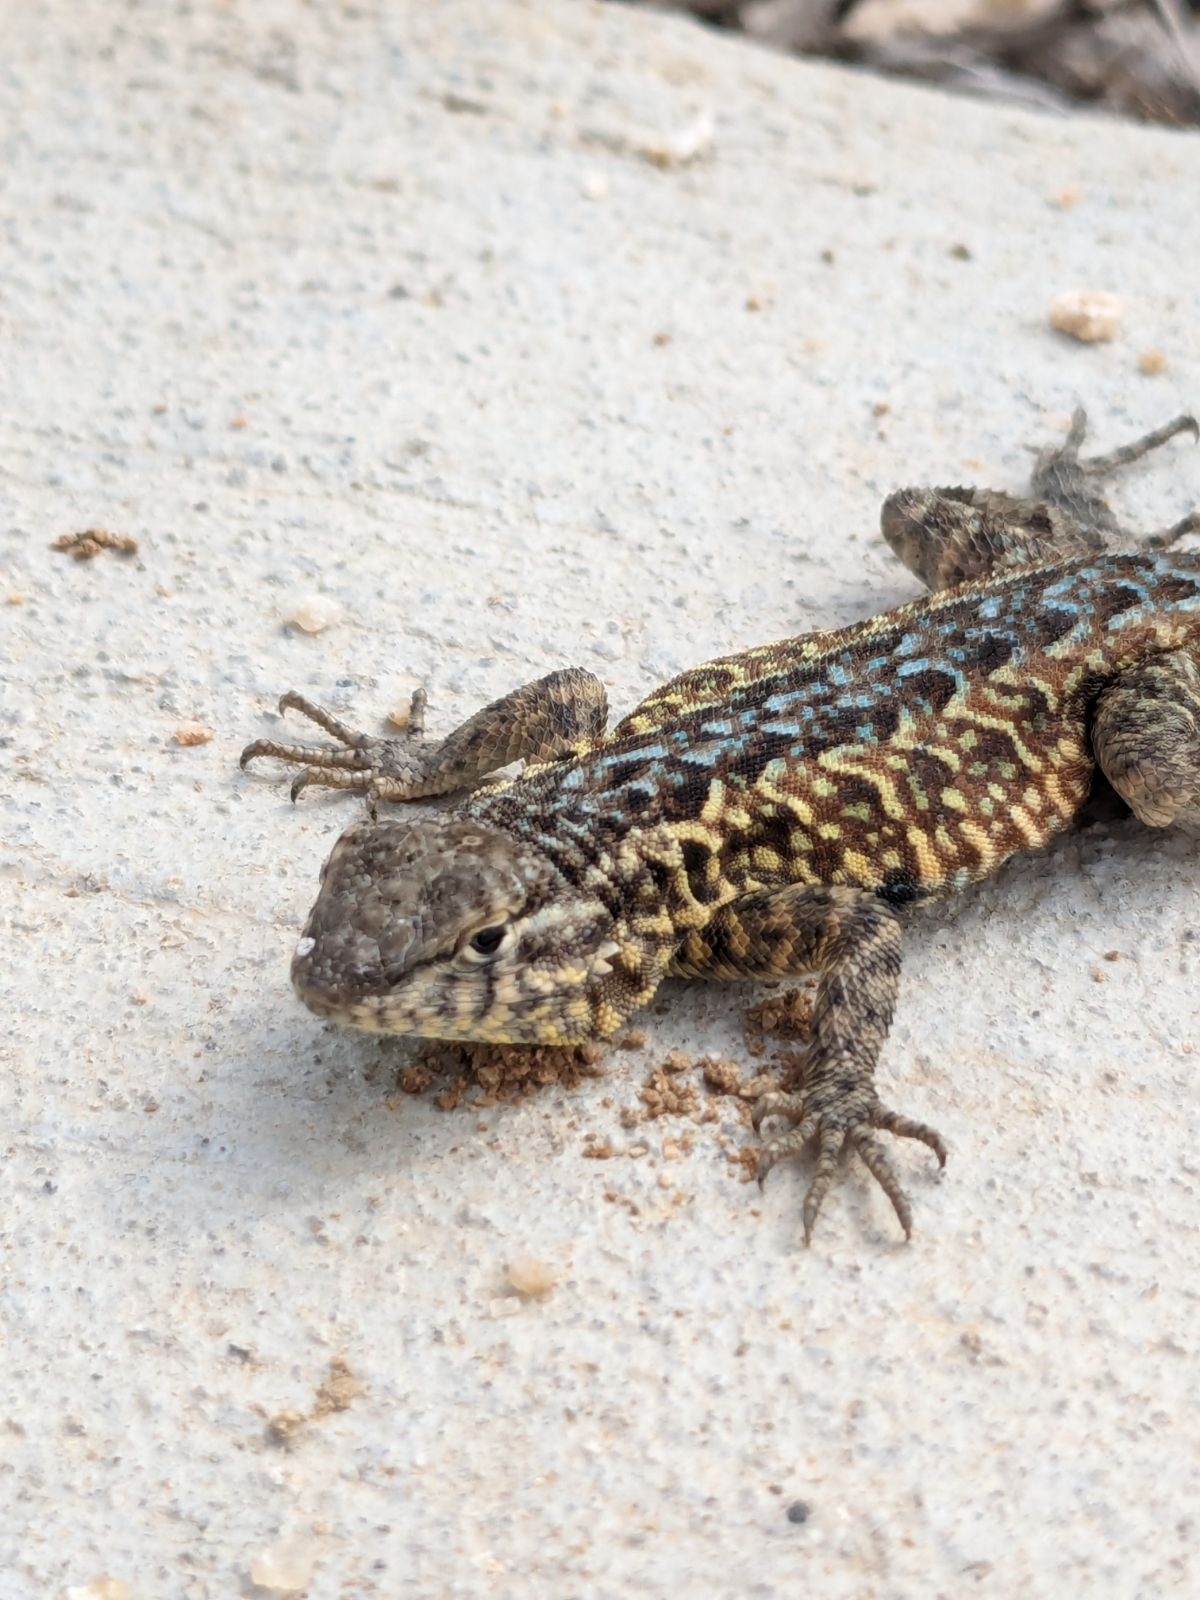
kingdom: Animalia
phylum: Chordata
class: Squamata
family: Phrynosomatidae
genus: Uta
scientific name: Uta stansburiana
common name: Side-blotched lizard
